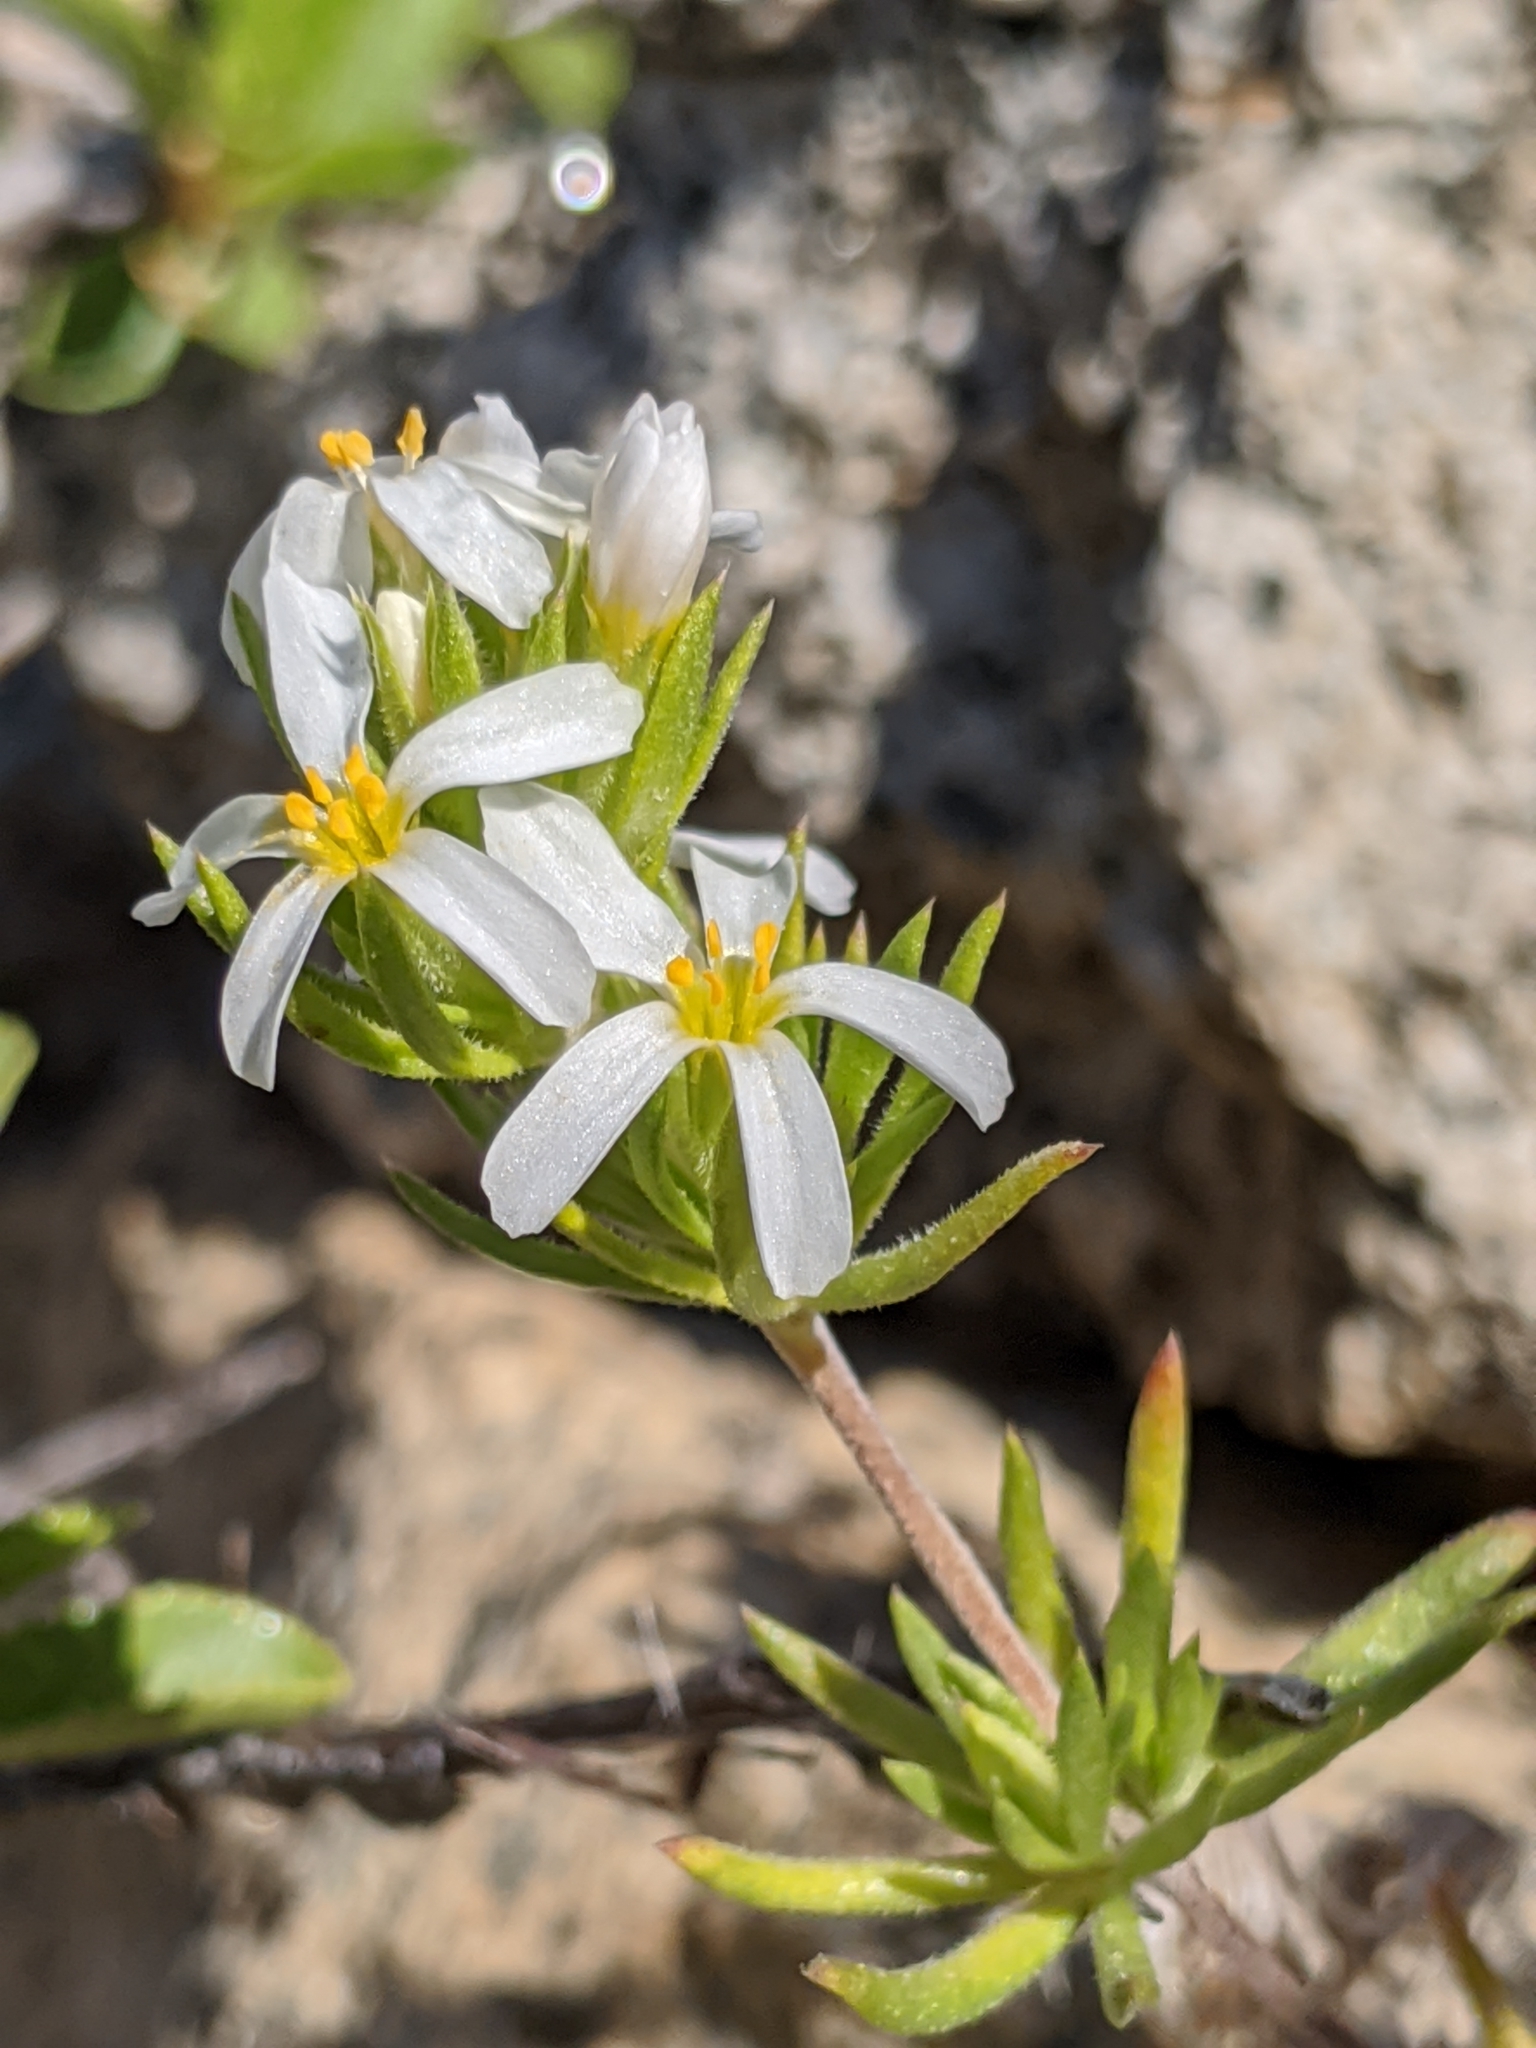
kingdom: Plantae
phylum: Tracheophyta
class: Magnoliopsida
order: Ericales
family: Polemoniaceae
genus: Leptosiphon
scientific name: Leptosiphon nuttallii
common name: Nuttall's linanthus
